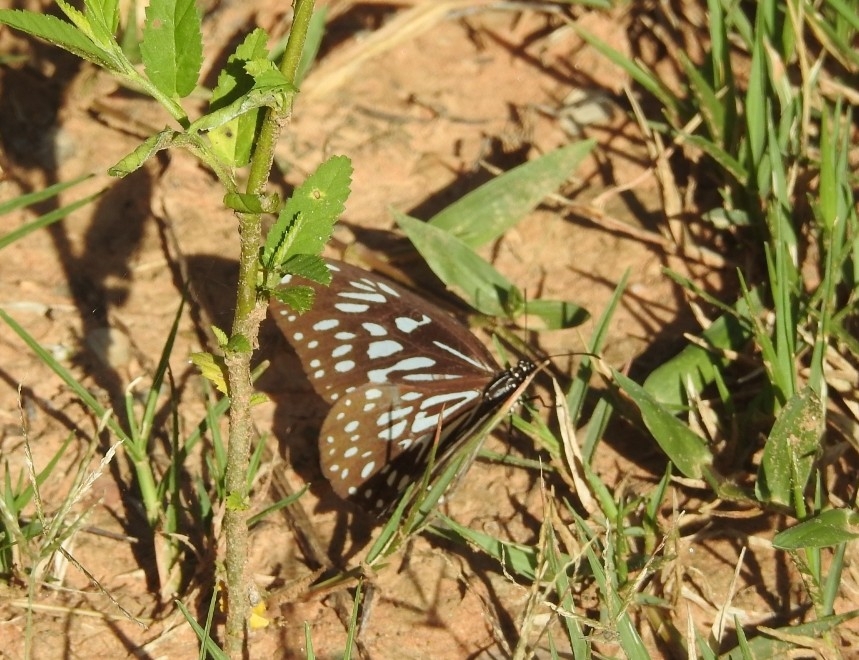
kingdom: Animalia
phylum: Arthropoda
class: Insecta
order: Lepidoptera
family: Nymphalidae
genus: Tirumala
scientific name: Tirumala septentrionis
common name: Dark blue tiger butterfly
